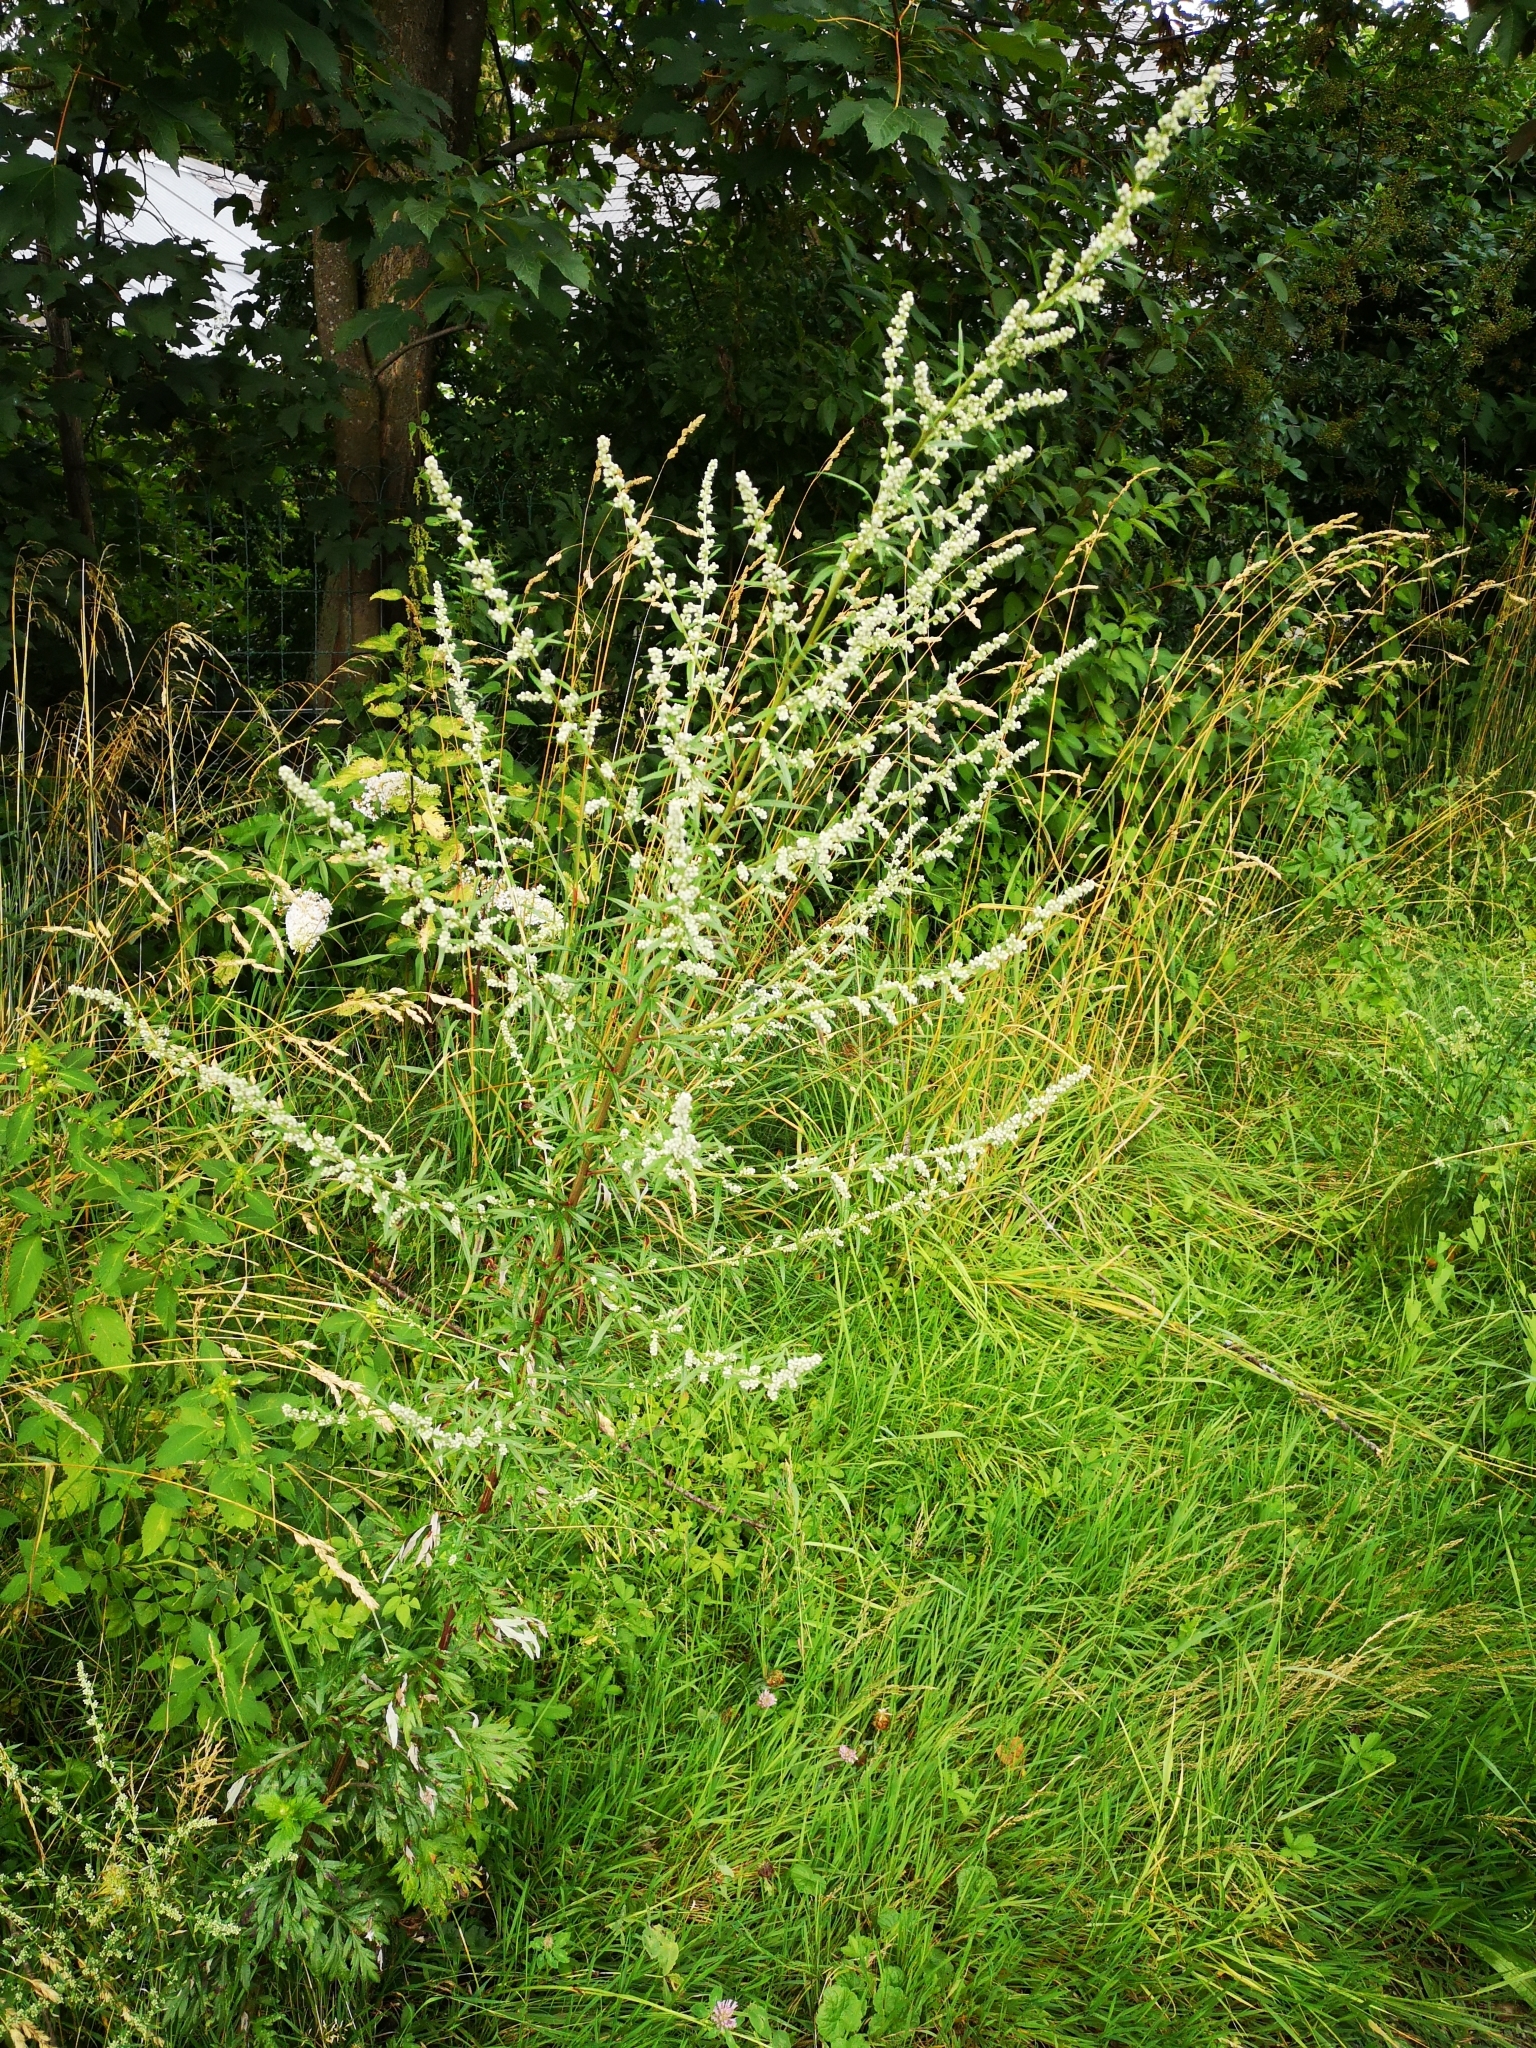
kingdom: Plantae
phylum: Tracheophyta
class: Magnoliopsida
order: Asterales
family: Asteraceae
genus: Artemisia
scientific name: Artemisia vulgaris
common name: Mugwort
